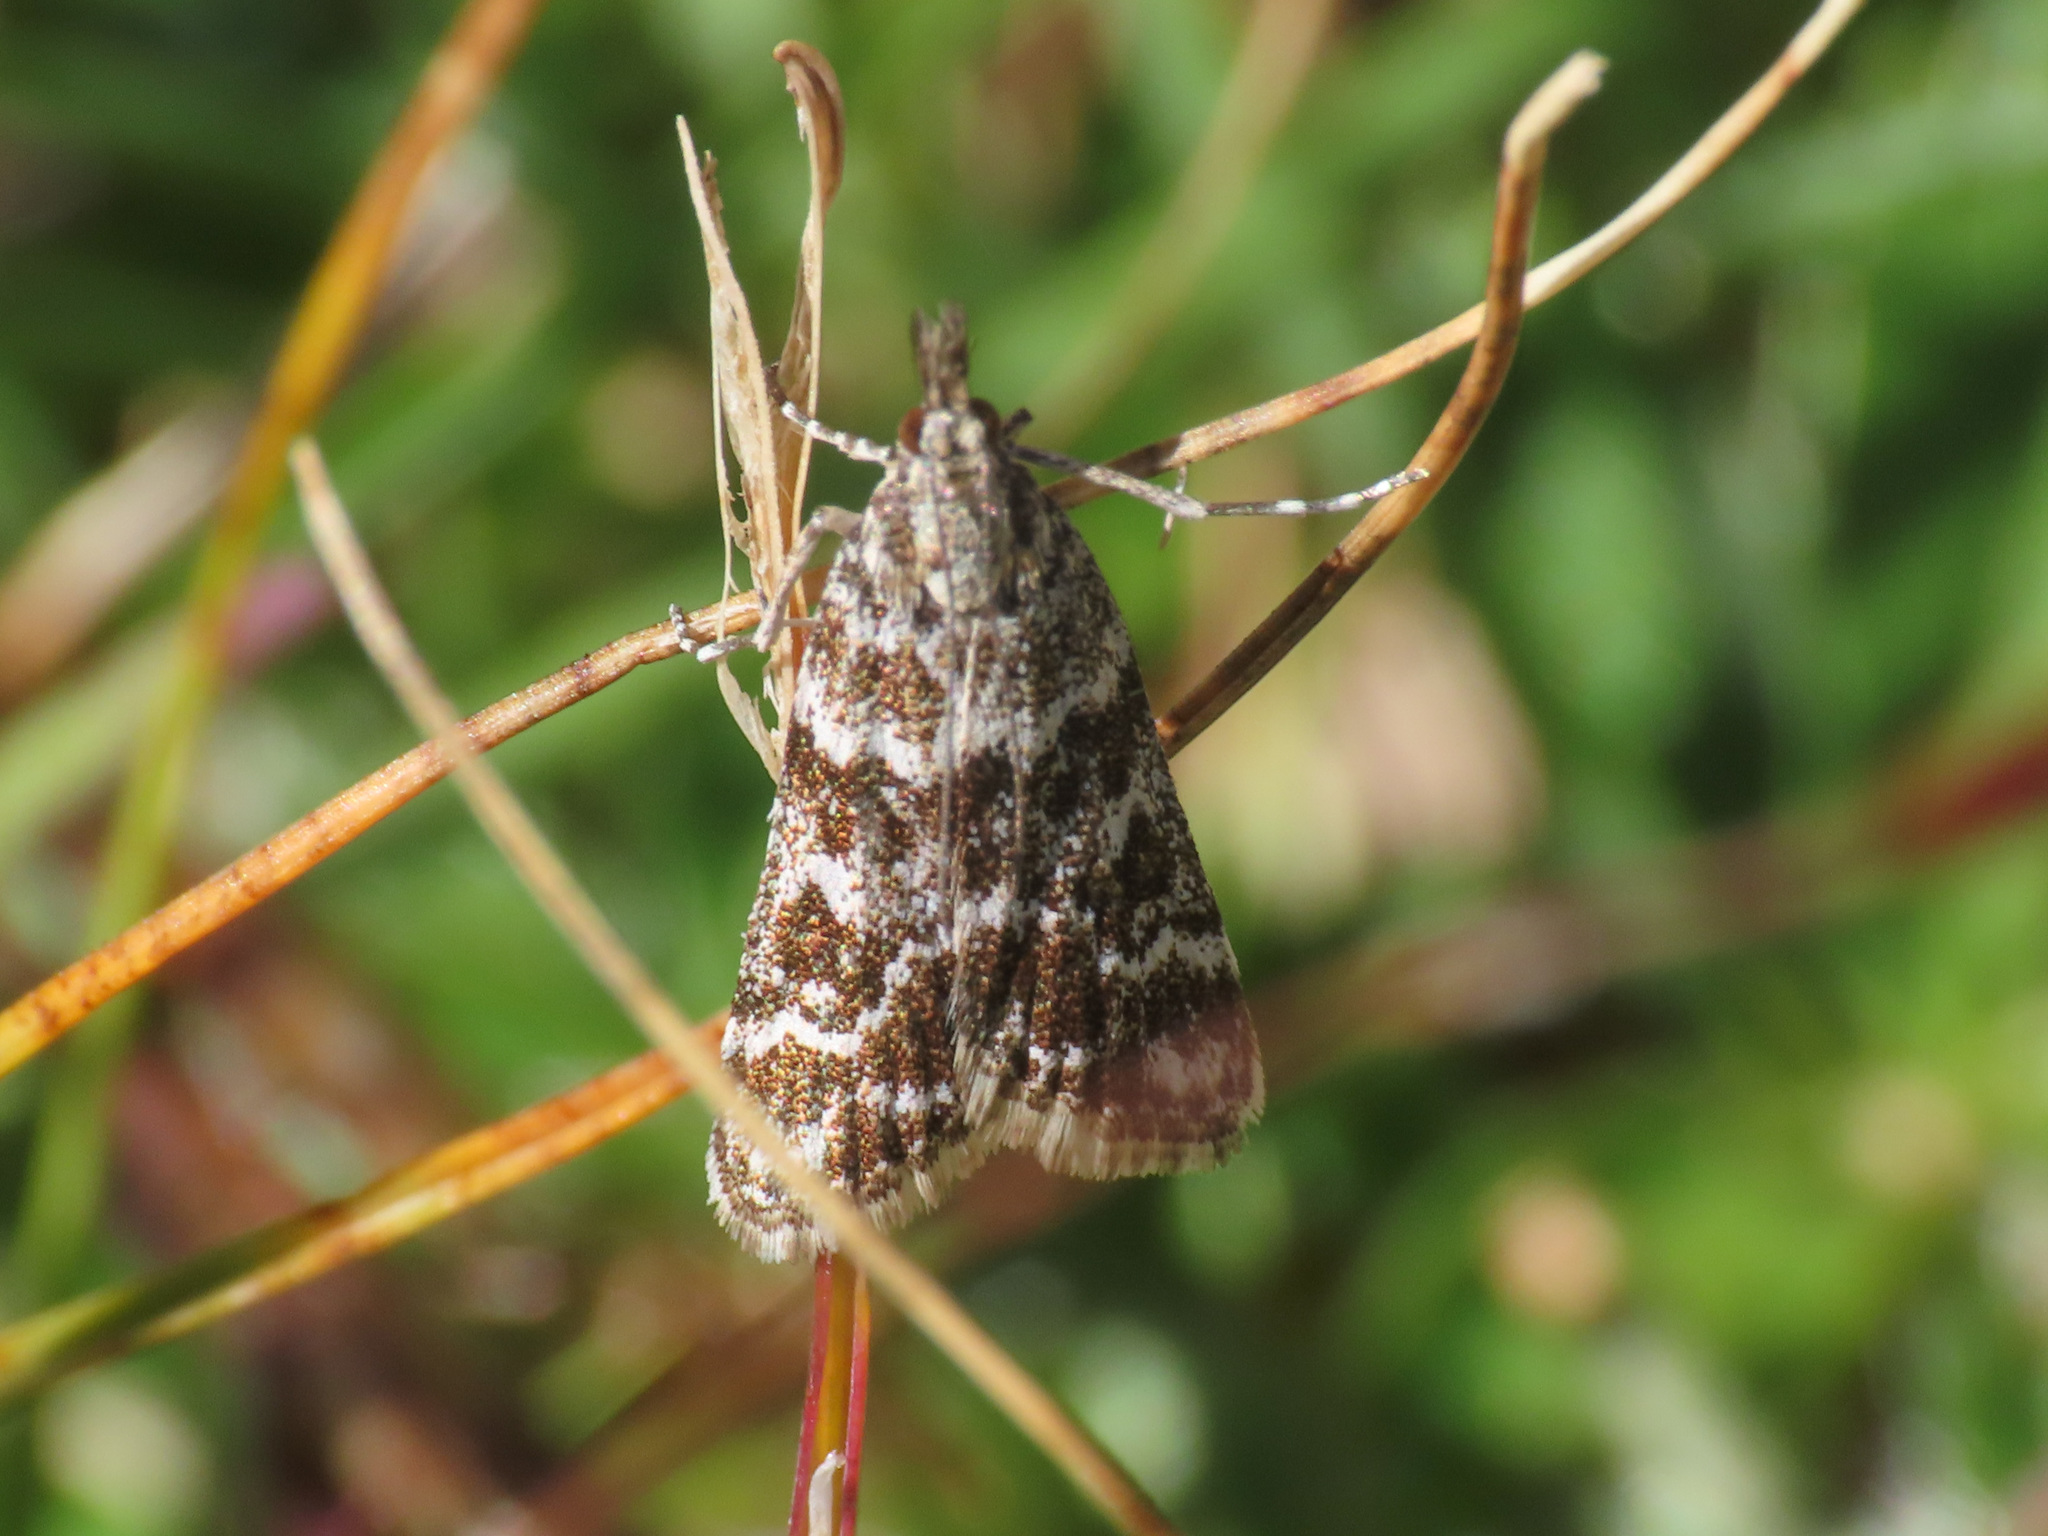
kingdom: Animalia
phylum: Arthropoda
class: Insecta
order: Lepidoptera
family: Crambidae
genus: Eudonia
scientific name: Eudonia lacustrata
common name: Little grey
